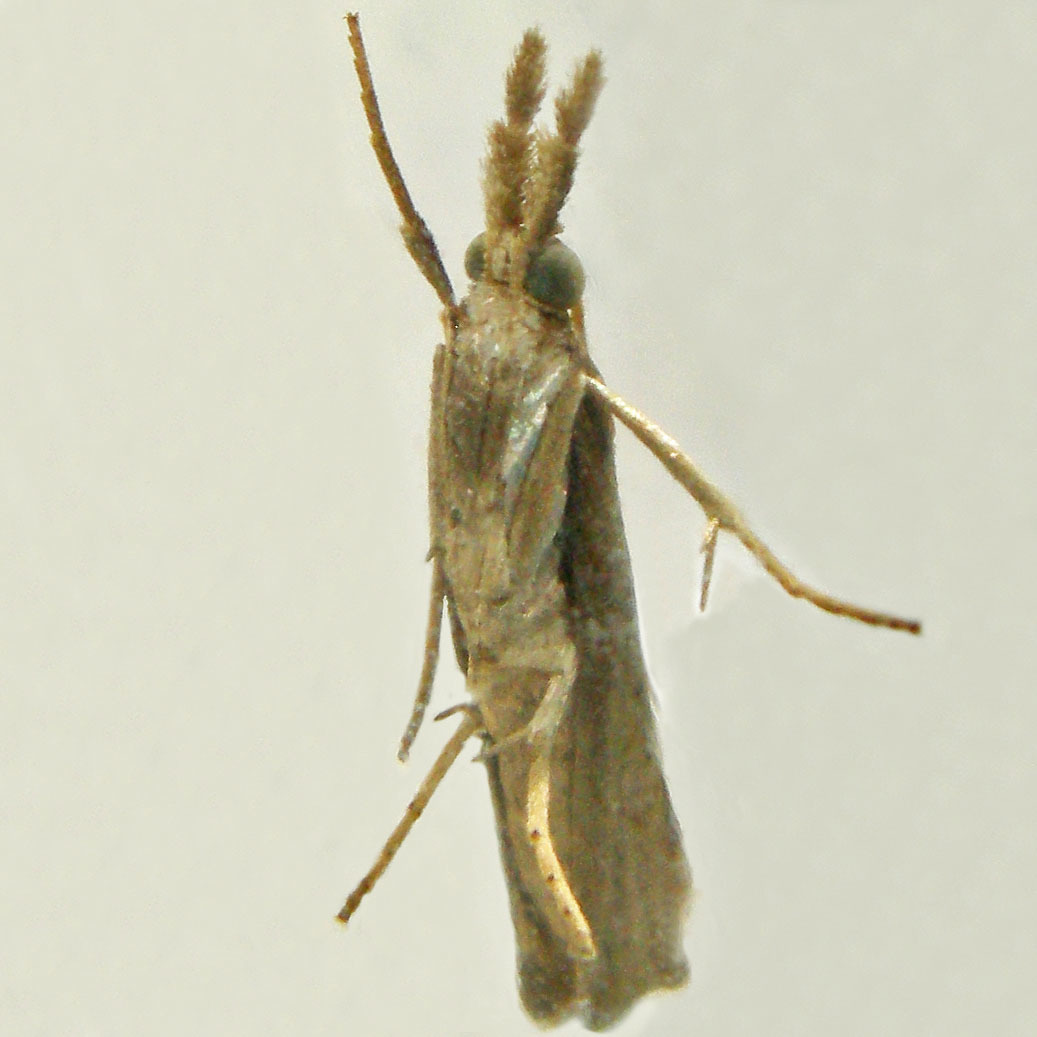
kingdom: Animalia
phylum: Arthropoda
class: Insecta
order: Lepidoptera
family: Crambidae
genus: Fissicrambus
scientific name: Fissicrambus mutabilis
